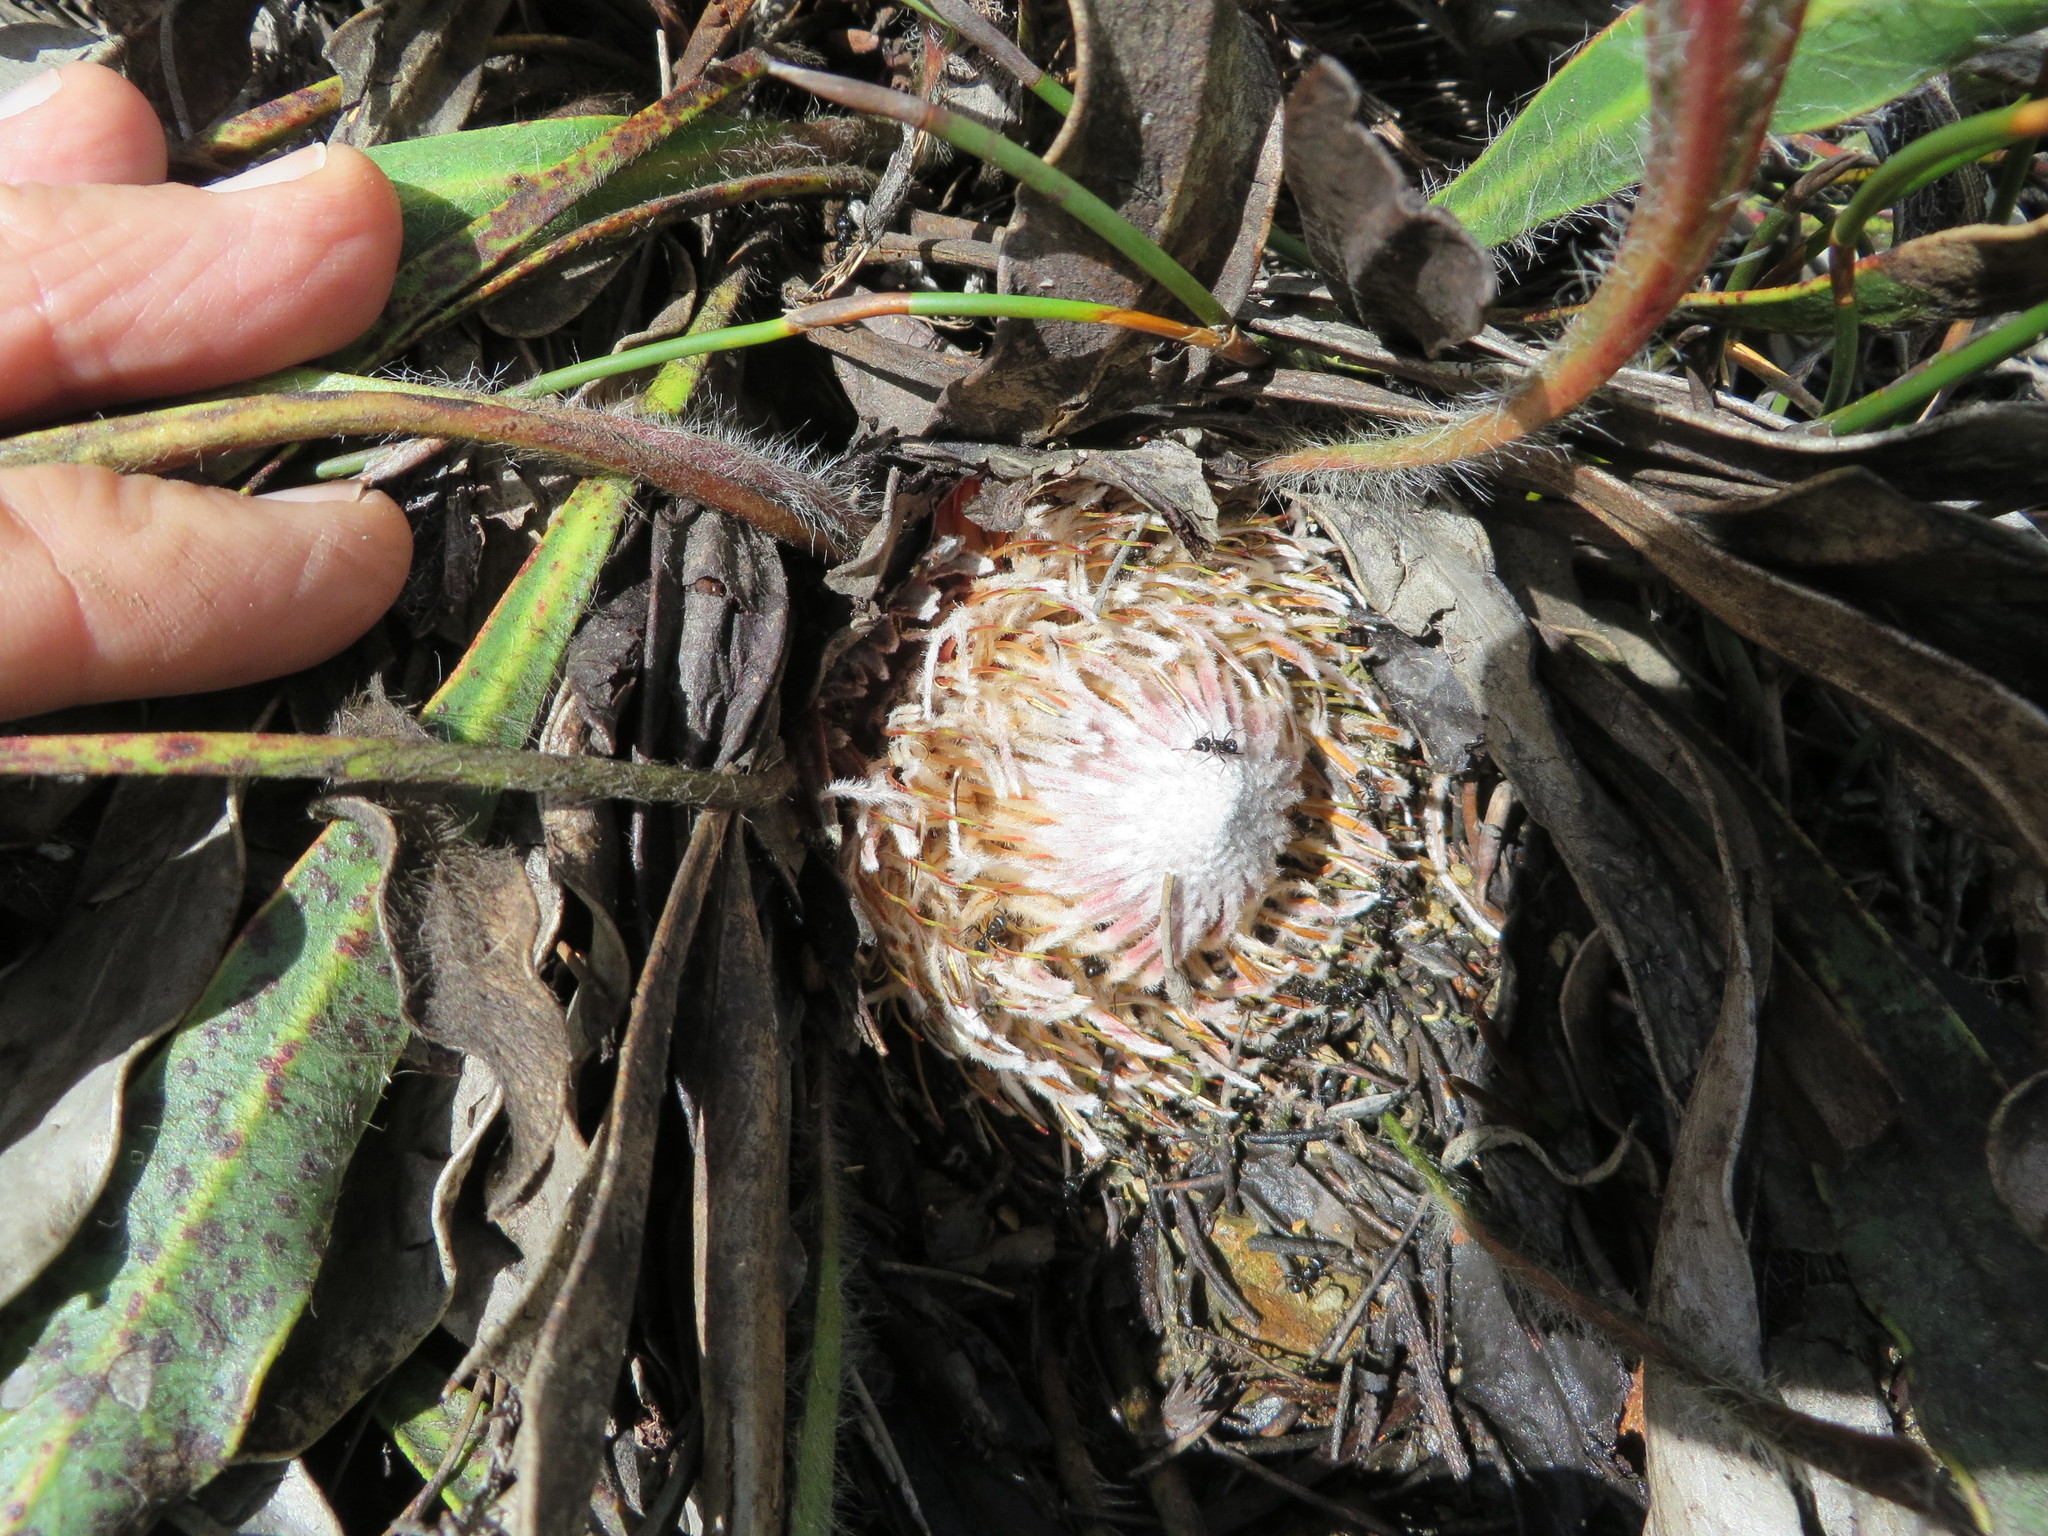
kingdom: Plantae
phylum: Tracheophyta
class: Magnoliopsida
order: Proteales
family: Proteaceae
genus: Protea
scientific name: Protea scabriuscula
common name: Hoary sugarbush
